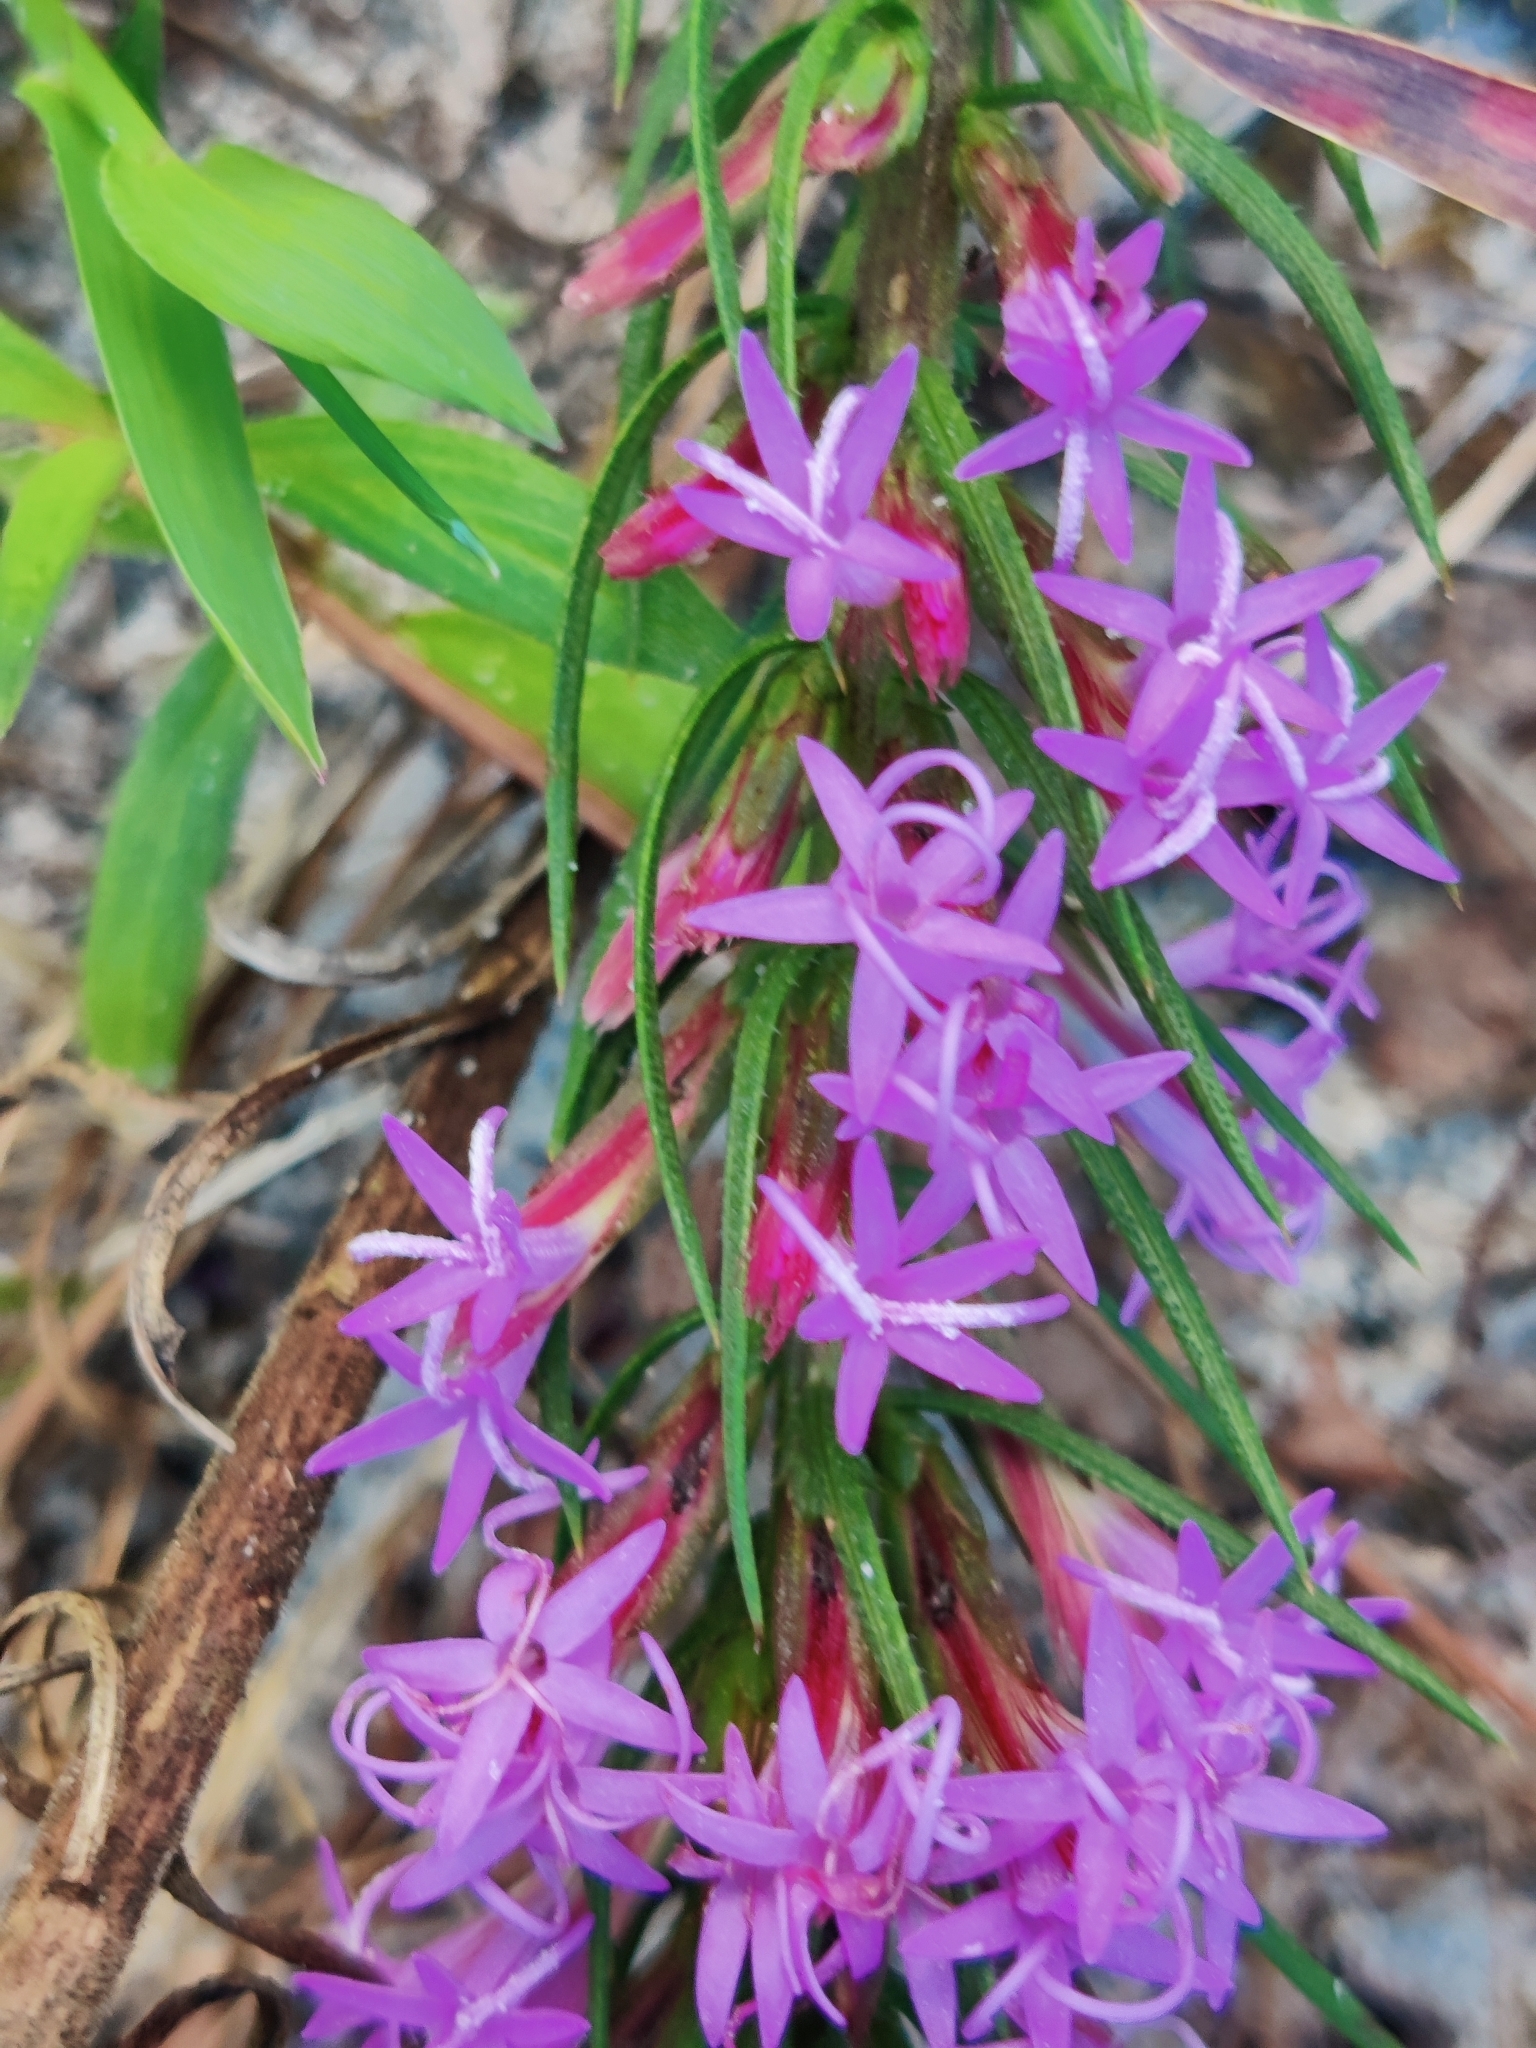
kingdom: Plantae
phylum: Tracheophyta
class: Magnoliopsida
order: Asterales
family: Asteraceae
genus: Liatris
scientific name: Liatris chapmanii
